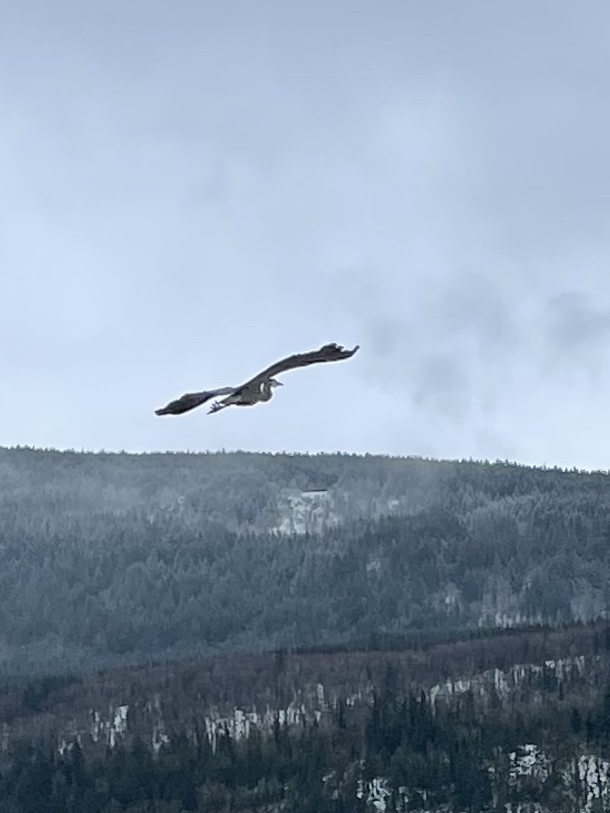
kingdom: Animalia
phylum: Chordata
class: Aves
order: Pelecaniformes
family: Ardeidae
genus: Ardea
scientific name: Ardea herodias
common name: Great blue heron
